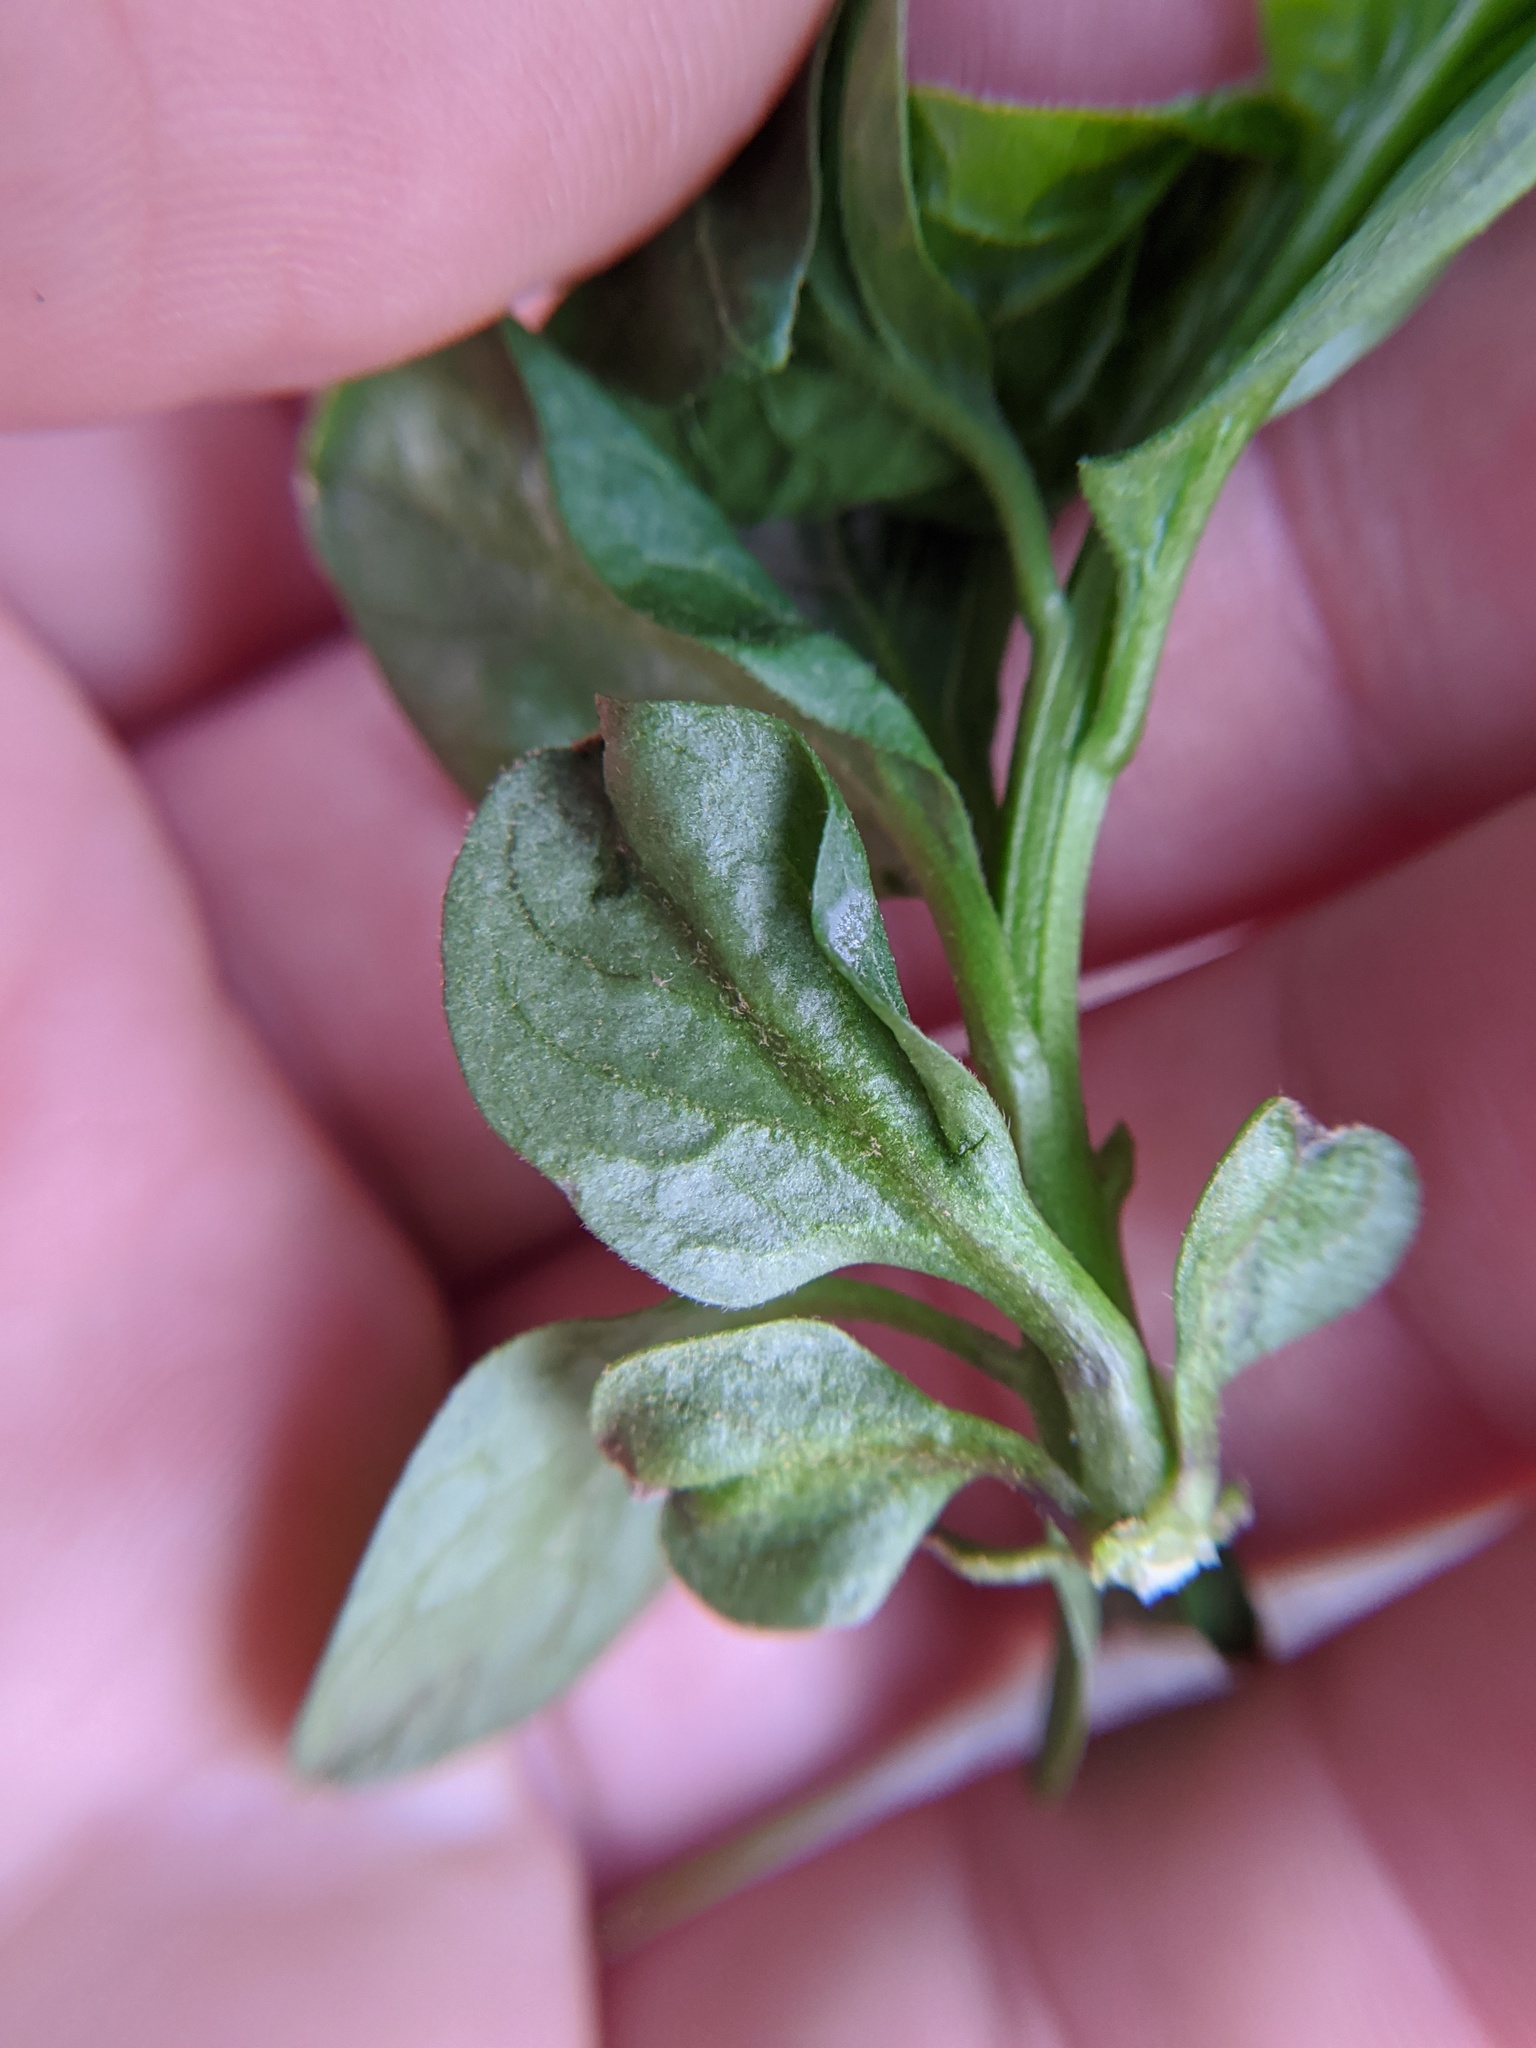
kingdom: Plantae
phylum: Tracheophyta
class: Magnoliopsida
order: Solanales
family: Solanaceae
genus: Solanum
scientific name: Solanum dulcamara
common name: Climbing nightshade
